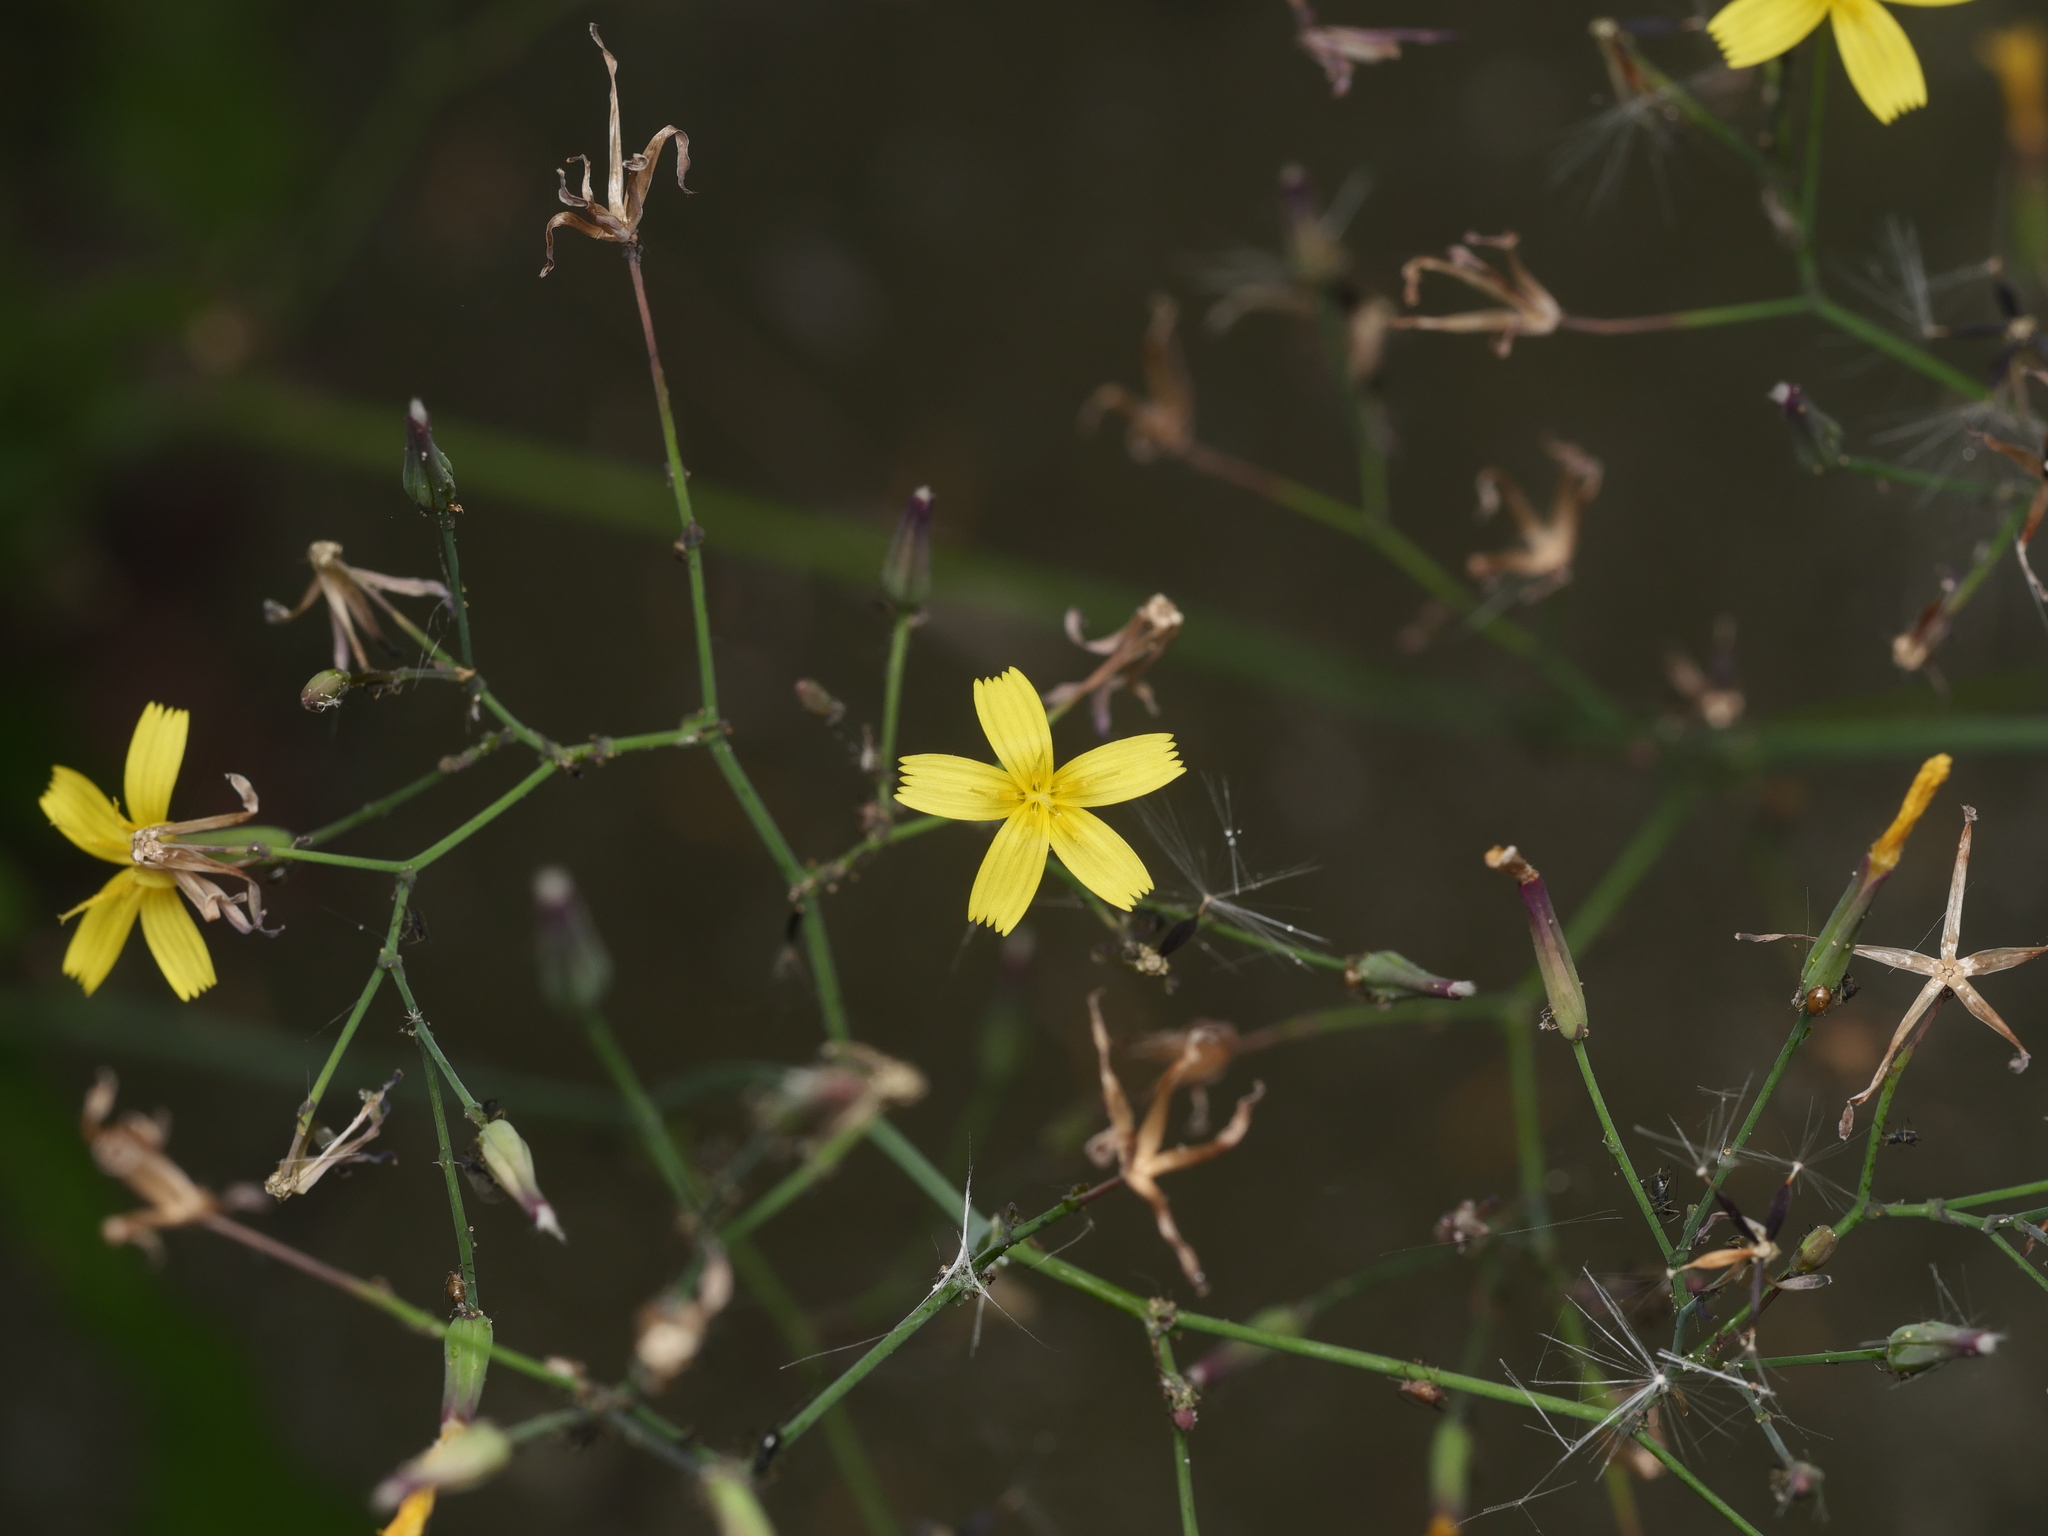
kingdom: Plantae
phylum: Tracheophyta
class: Magnoliopsida
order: Asterales
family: Asteraceae
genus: Mycelis
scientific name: Mycelis muralis
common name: Wall lettuce
